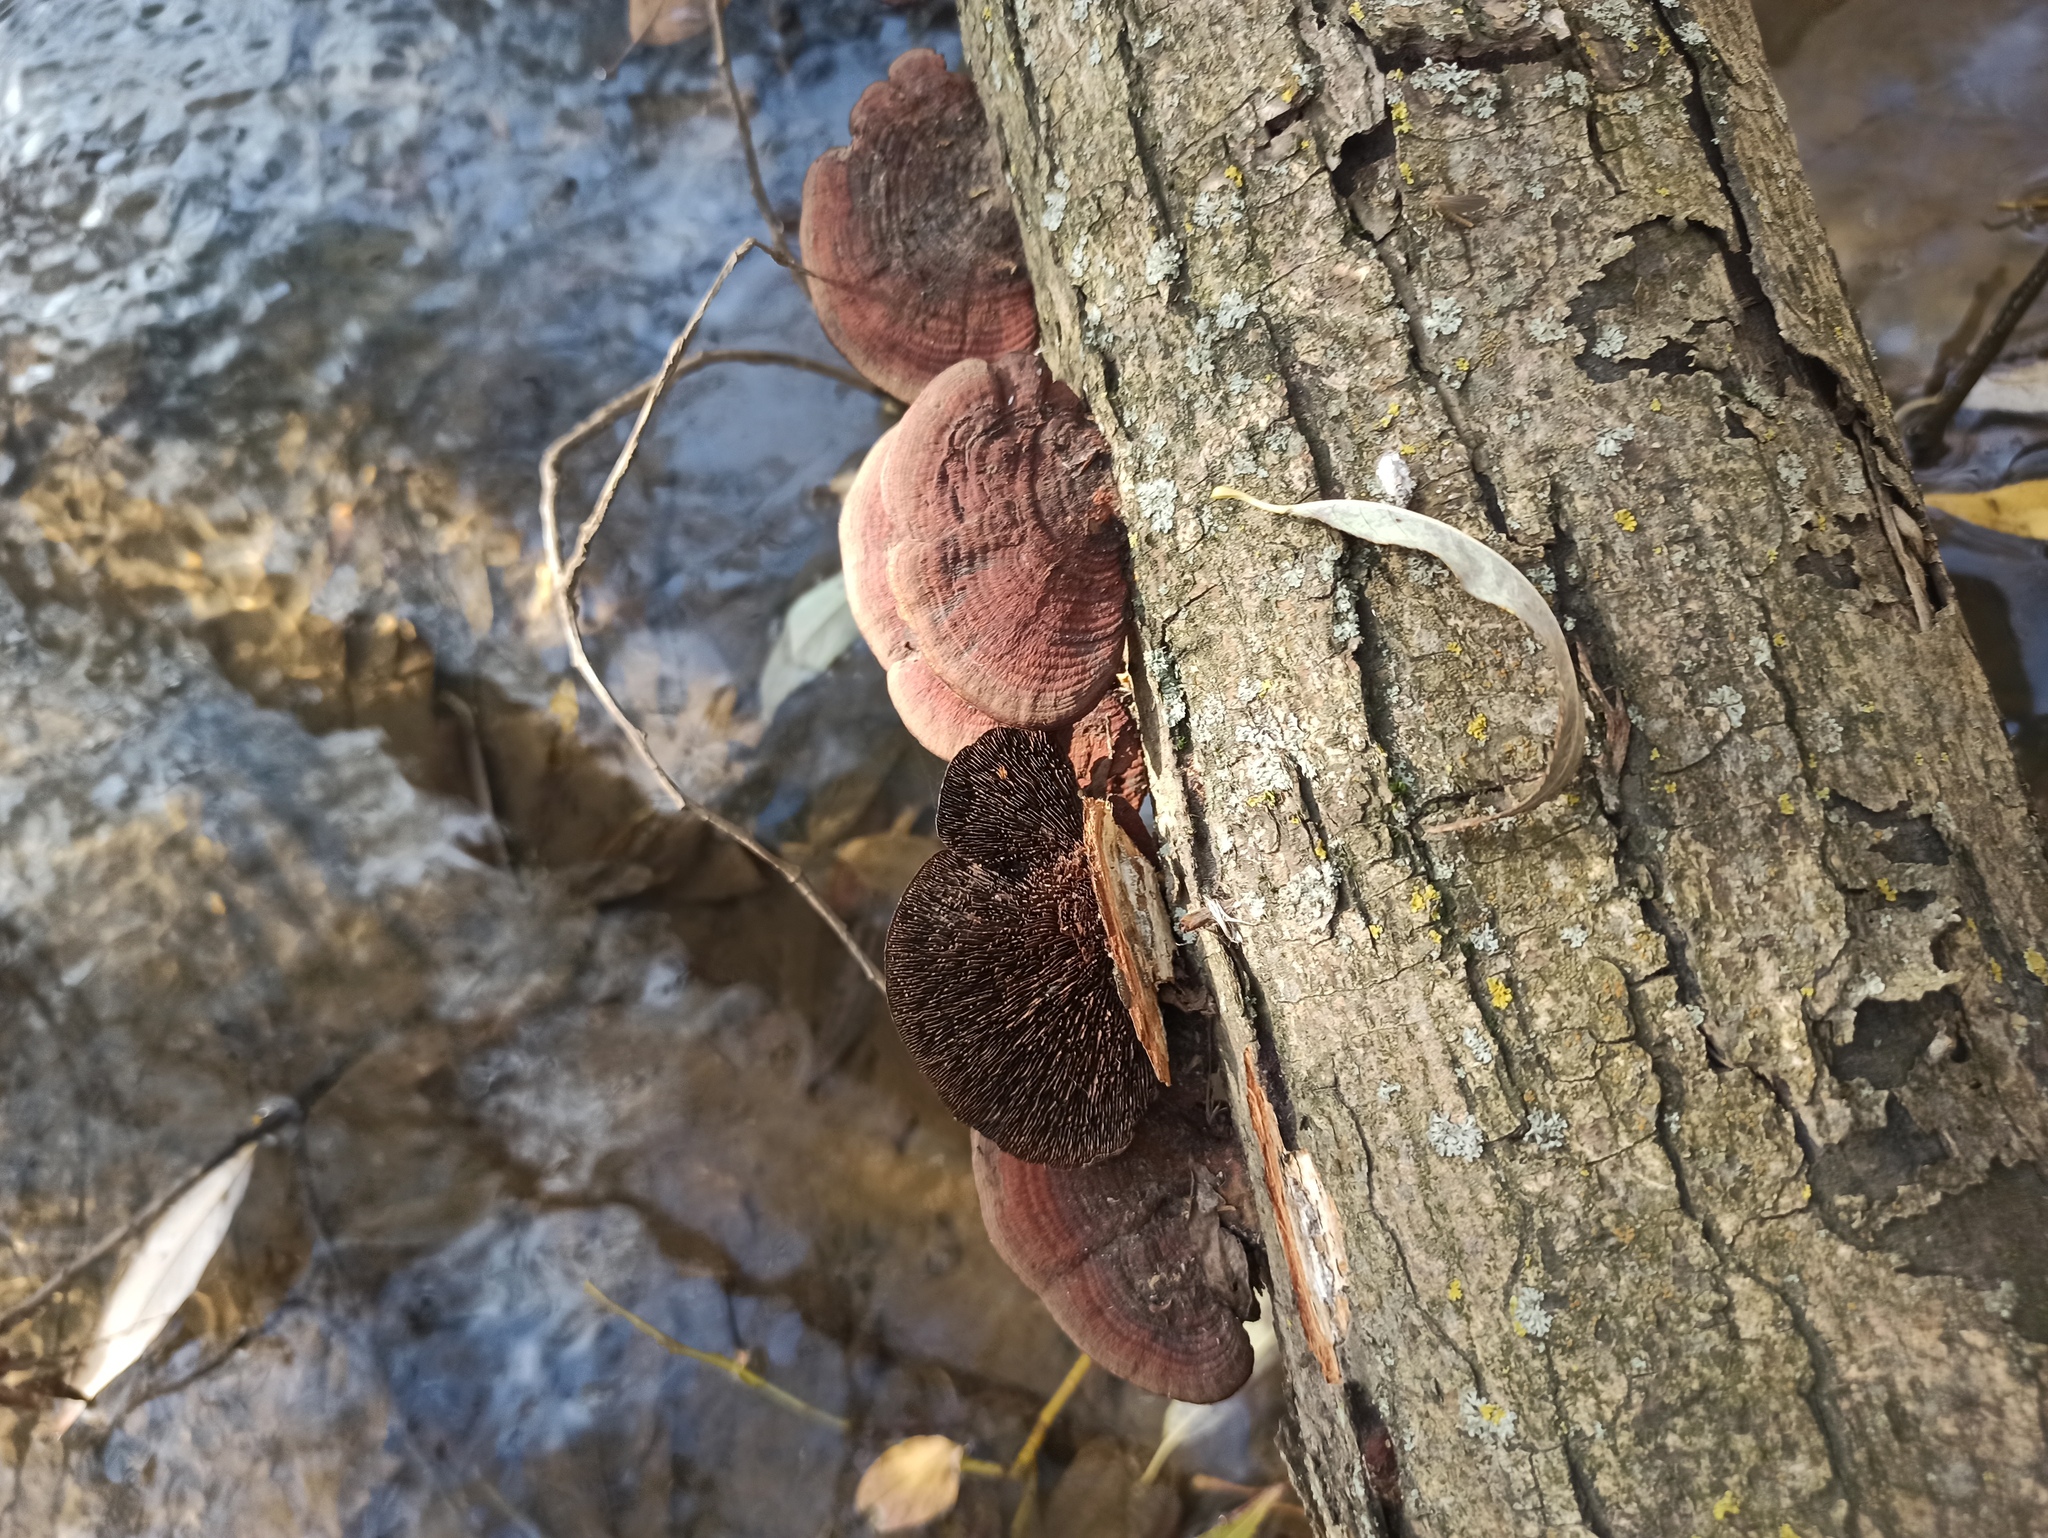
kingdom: Fungi
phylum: Basidiomycota
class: Agaricomycetes
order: Polyporales
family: Polyporaceae
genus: Daedaleopsis
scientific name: Daedaleopsis tricolor
